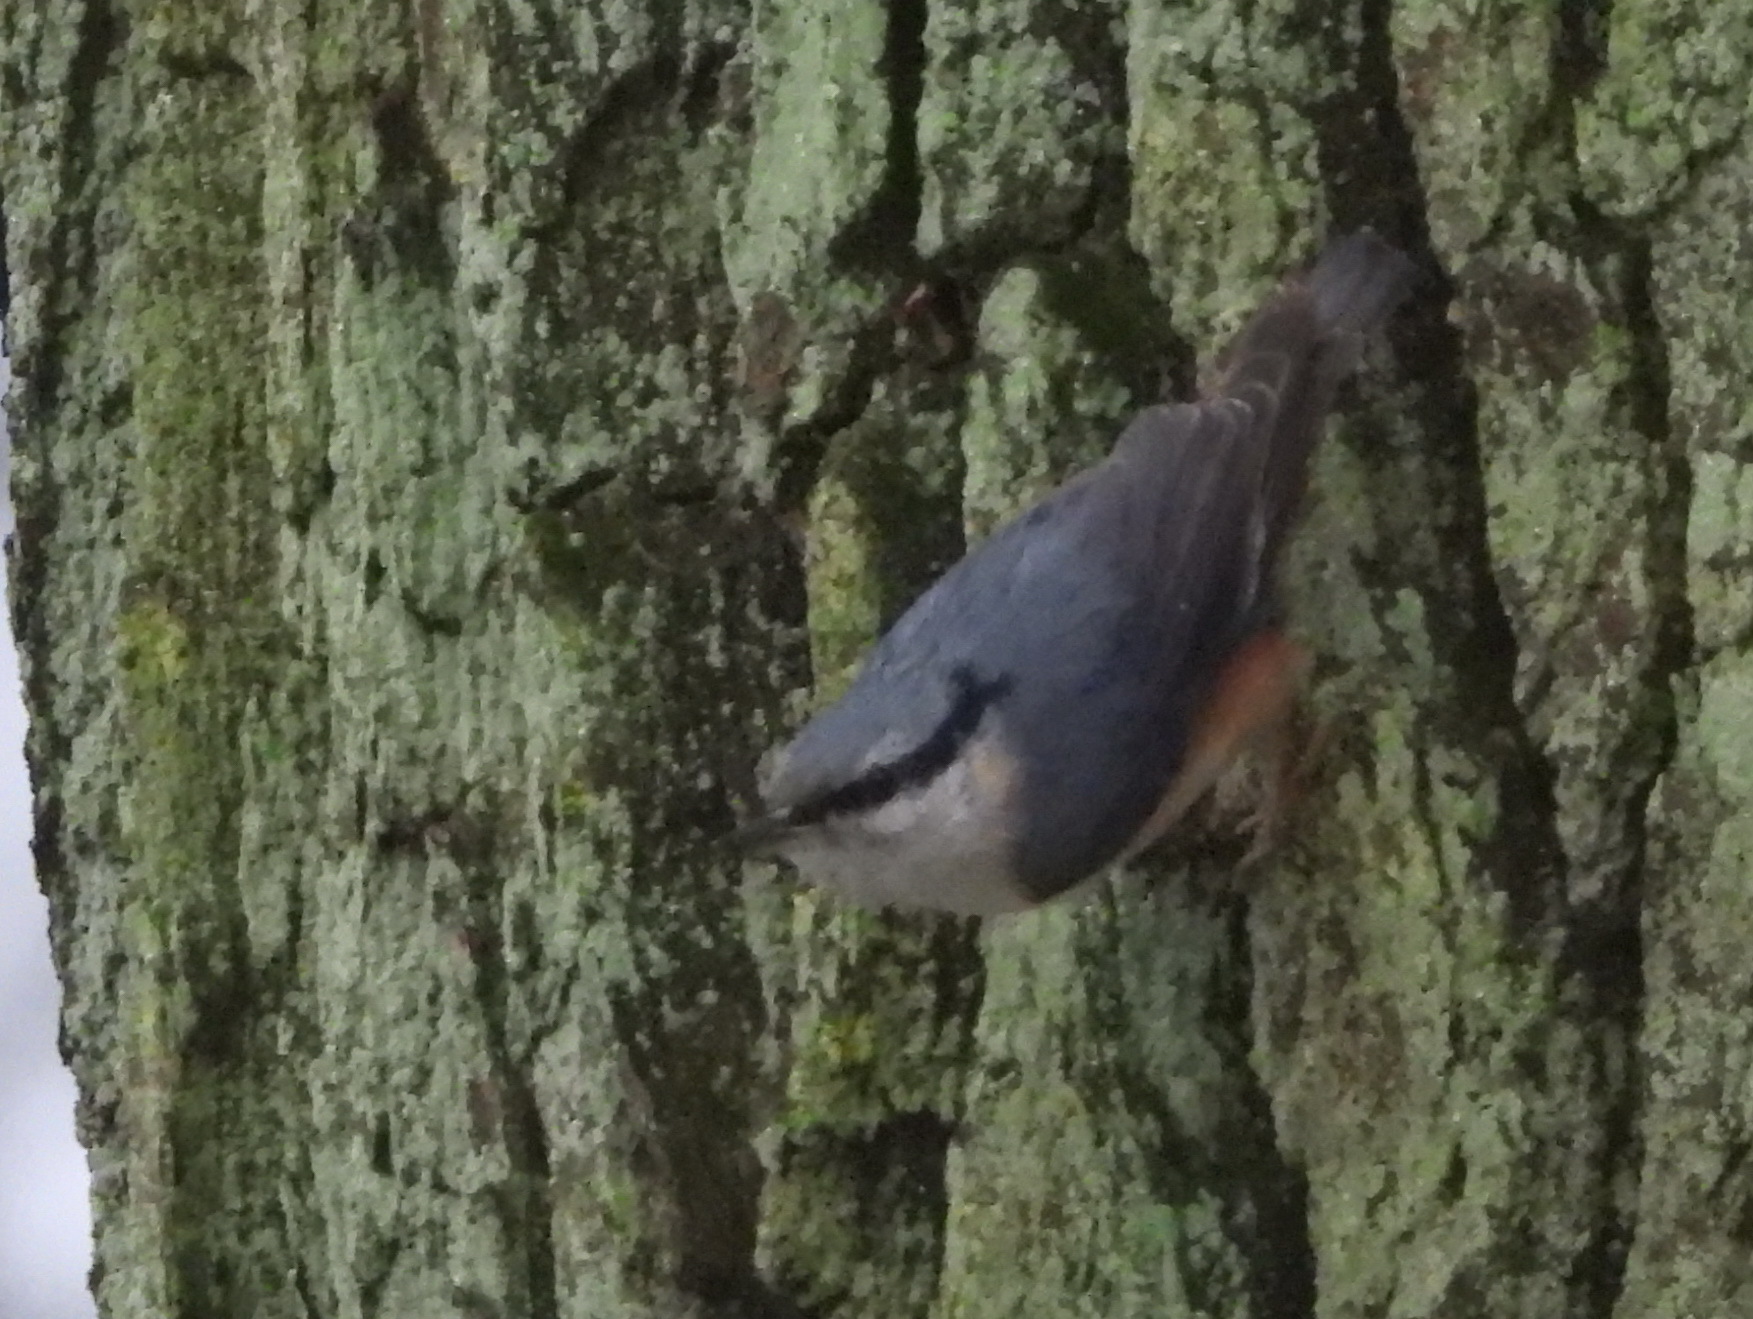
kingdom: Animalia
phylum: Chordata
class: Aves
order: Passeriformes
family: Sittidae
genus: Sitta
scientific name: Sitta europaea
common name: Eurasian nuthatch
